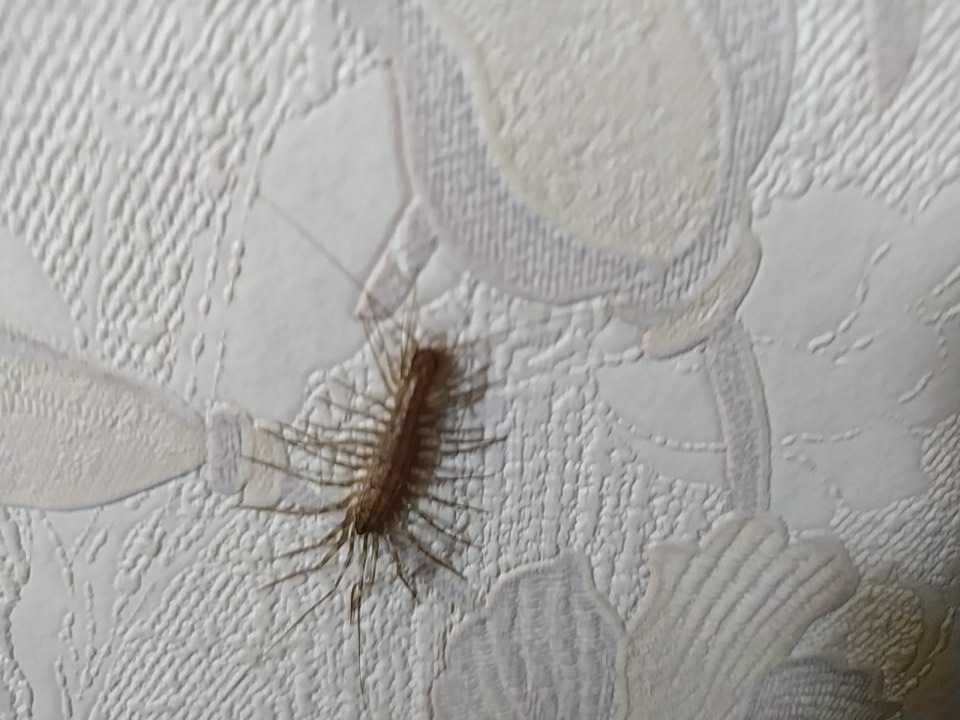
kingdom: Animalia
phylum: Arthropoda
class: Chilopoda
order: Scutigeromorpha
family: Scutigeridae
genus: Scutigera
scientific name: Scutigera coleoptrata
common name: House centipede
